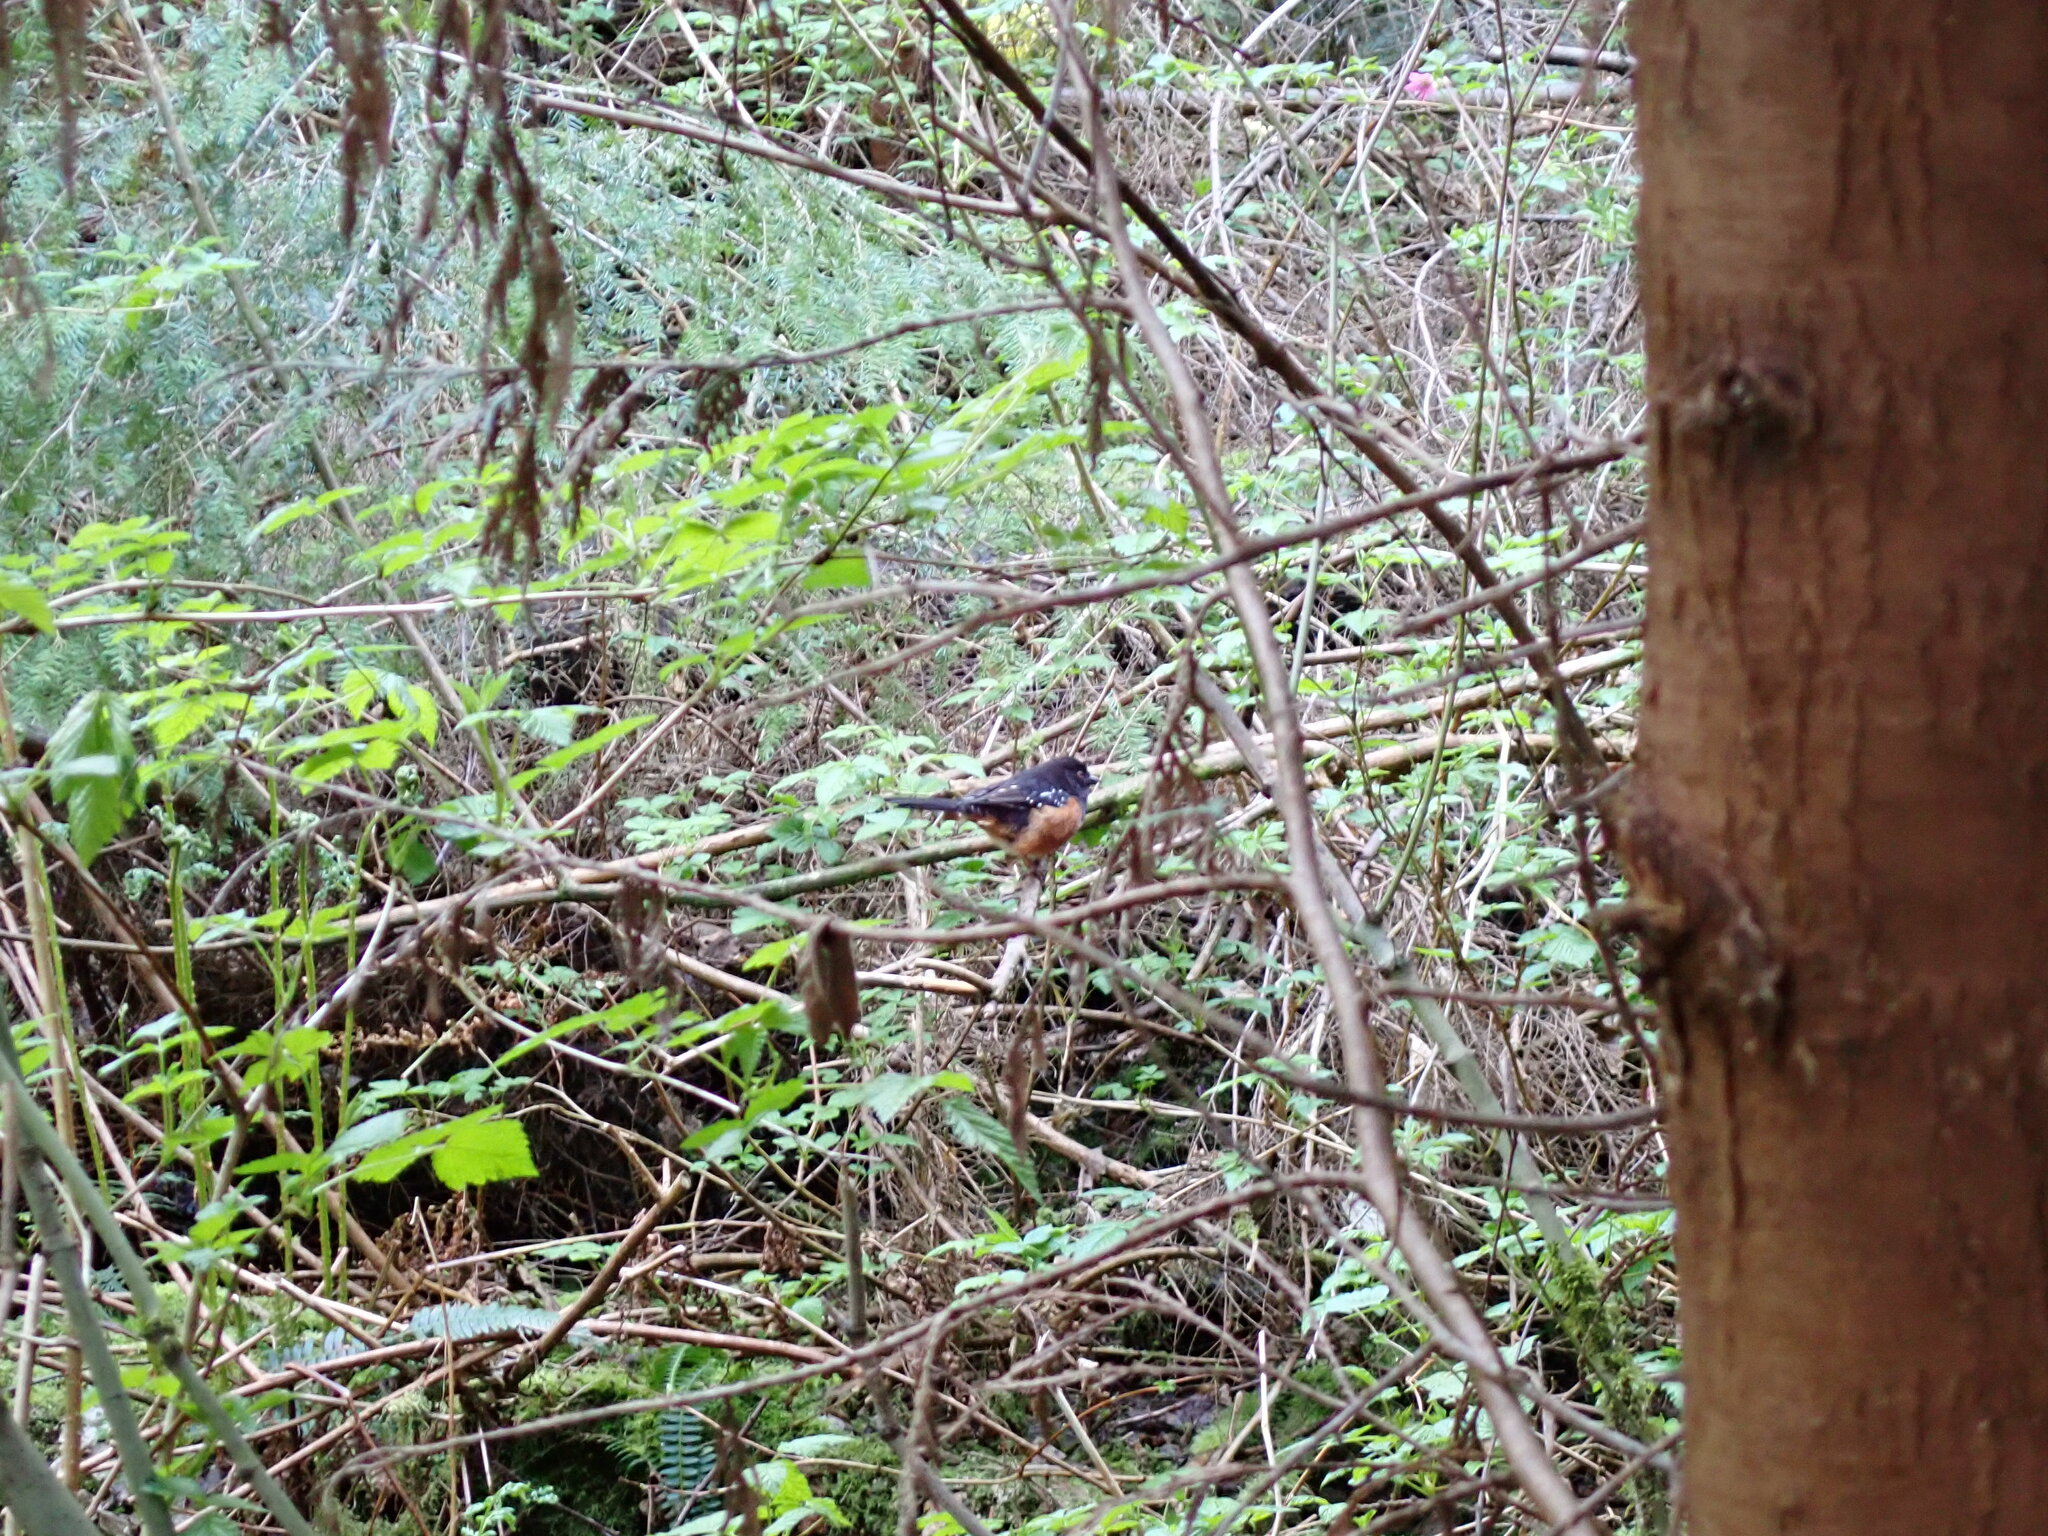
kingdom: Animalia
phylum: Chordata
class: Aves
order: Passeriformes
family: Passerellidae
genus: Pipilo
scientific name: Pipilo maculatus
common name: Spotted towhee
